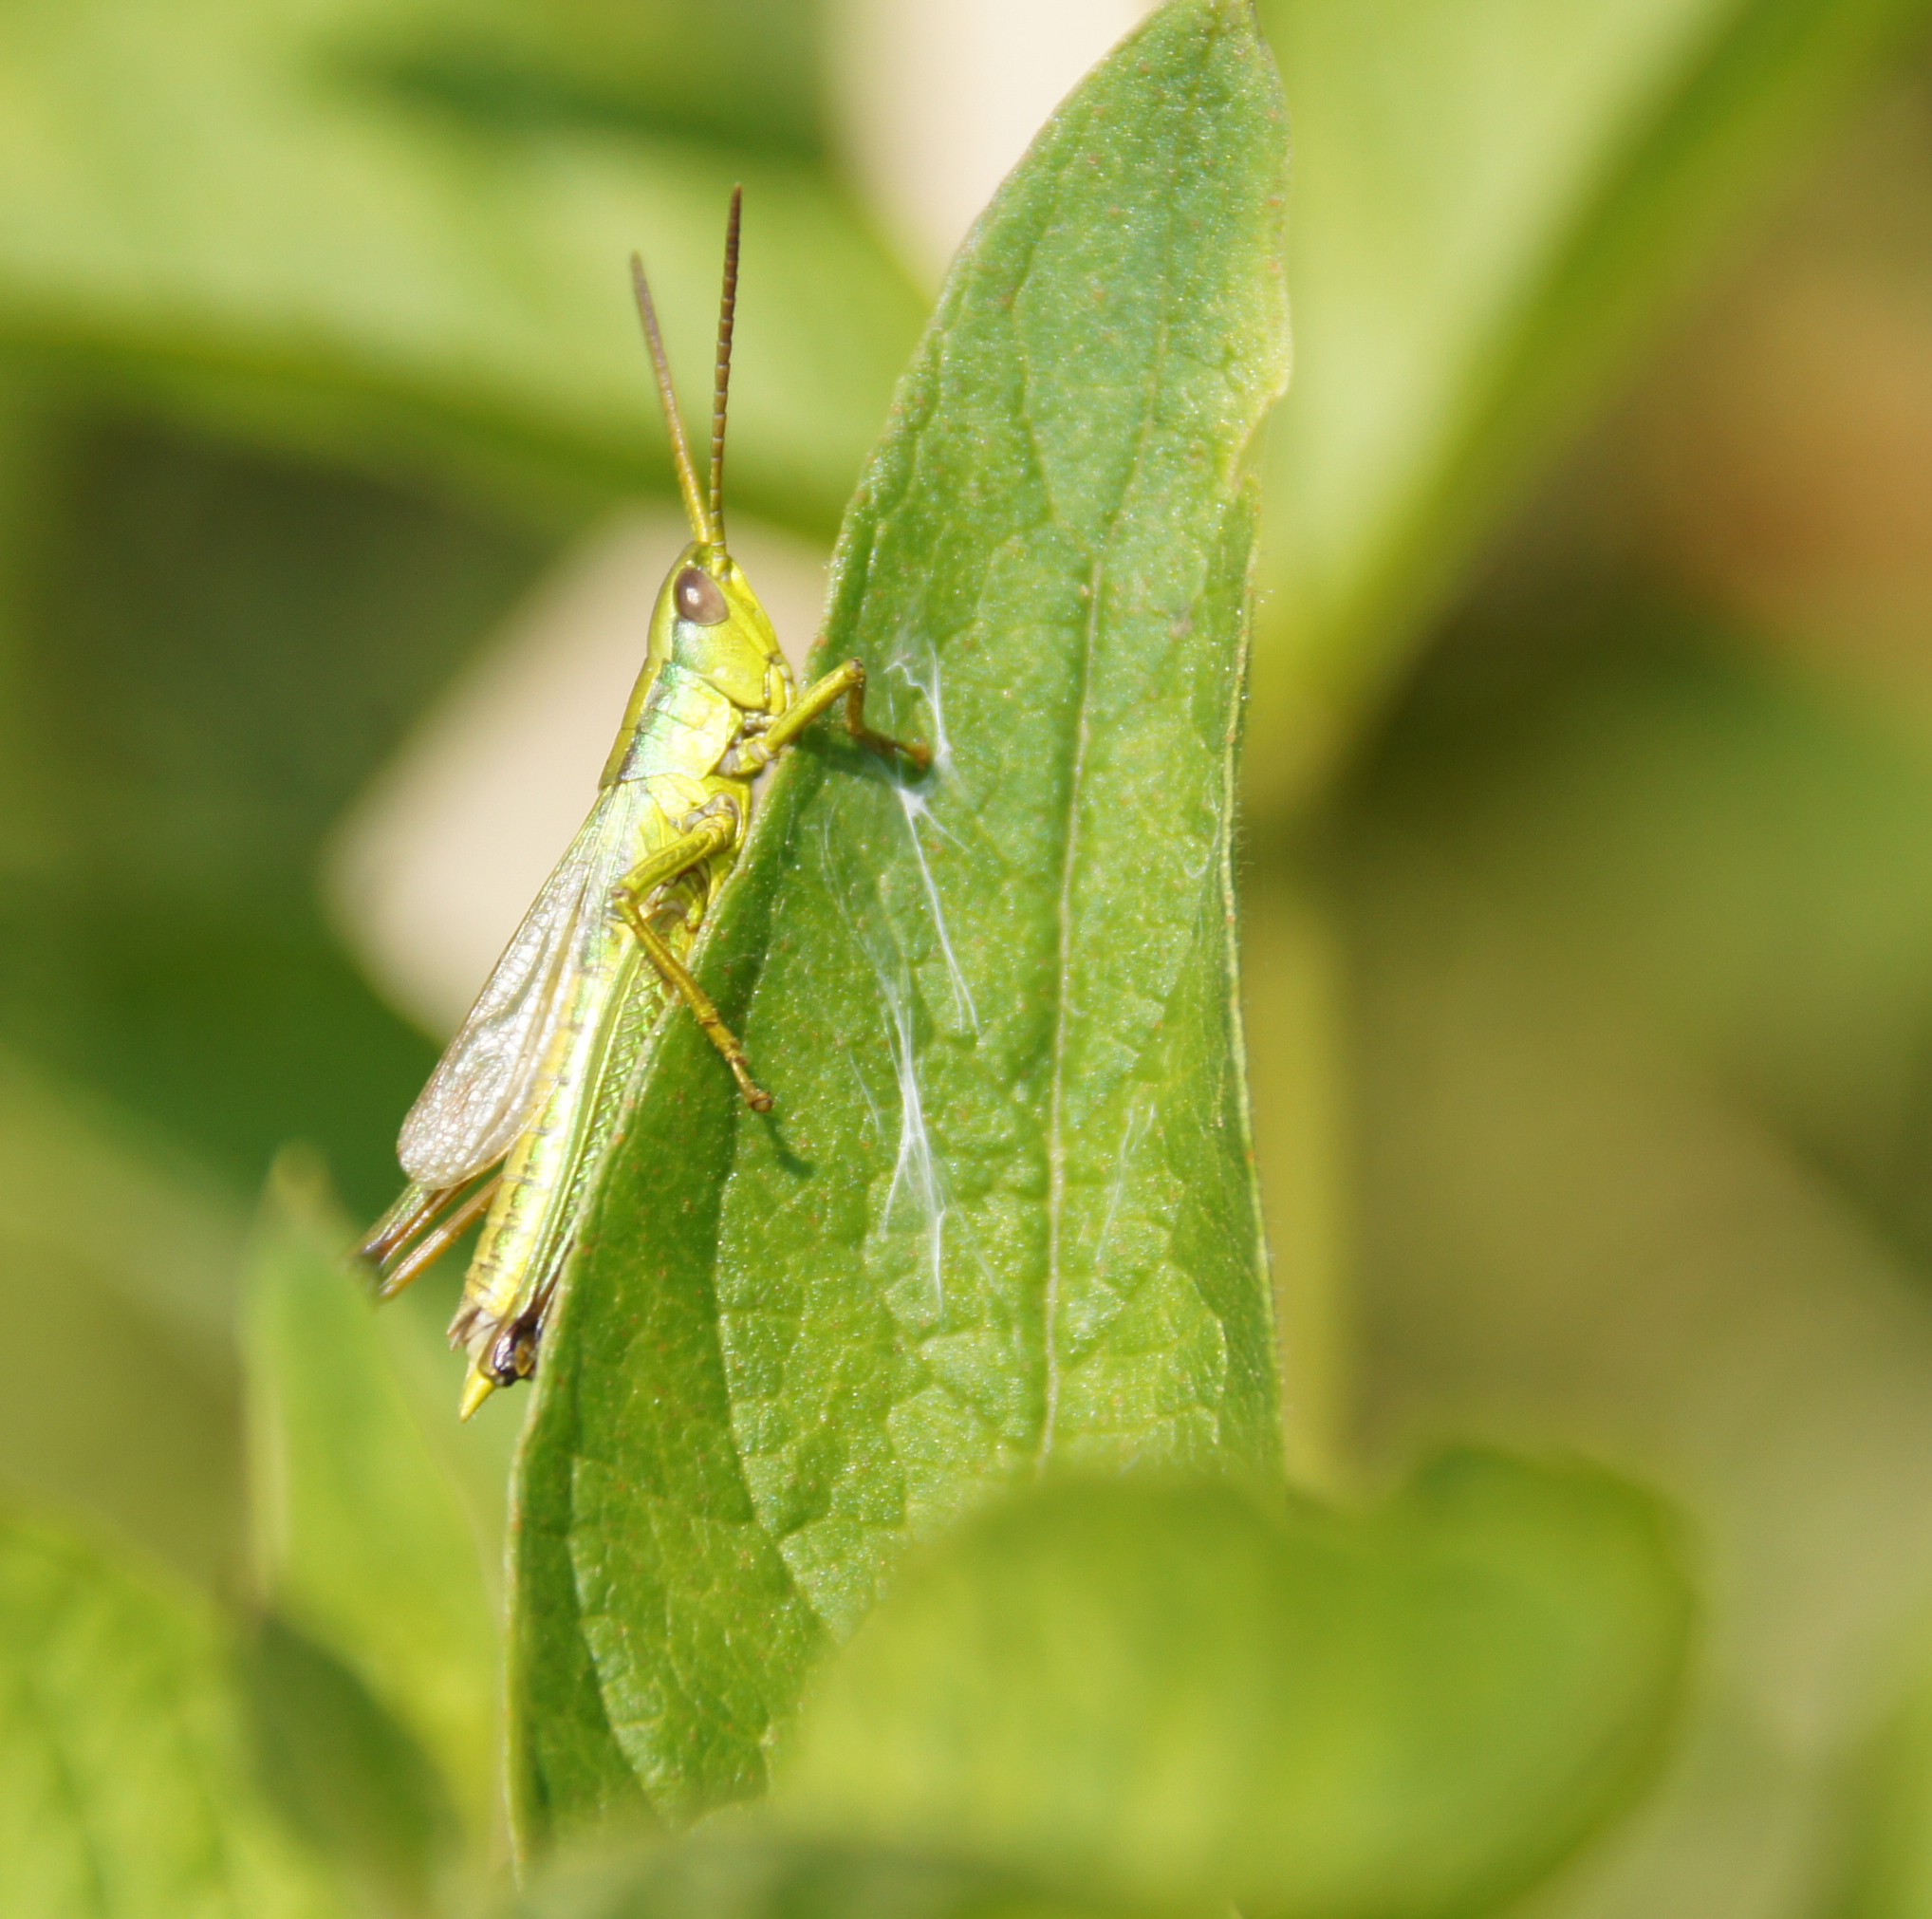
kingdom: Animalia
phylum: Arthropoda
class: Insecta
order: Orthoptera
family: Acrididae
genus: Chrysochraon
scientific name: Chrysochraon dispar
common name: Large gold grasshopper
